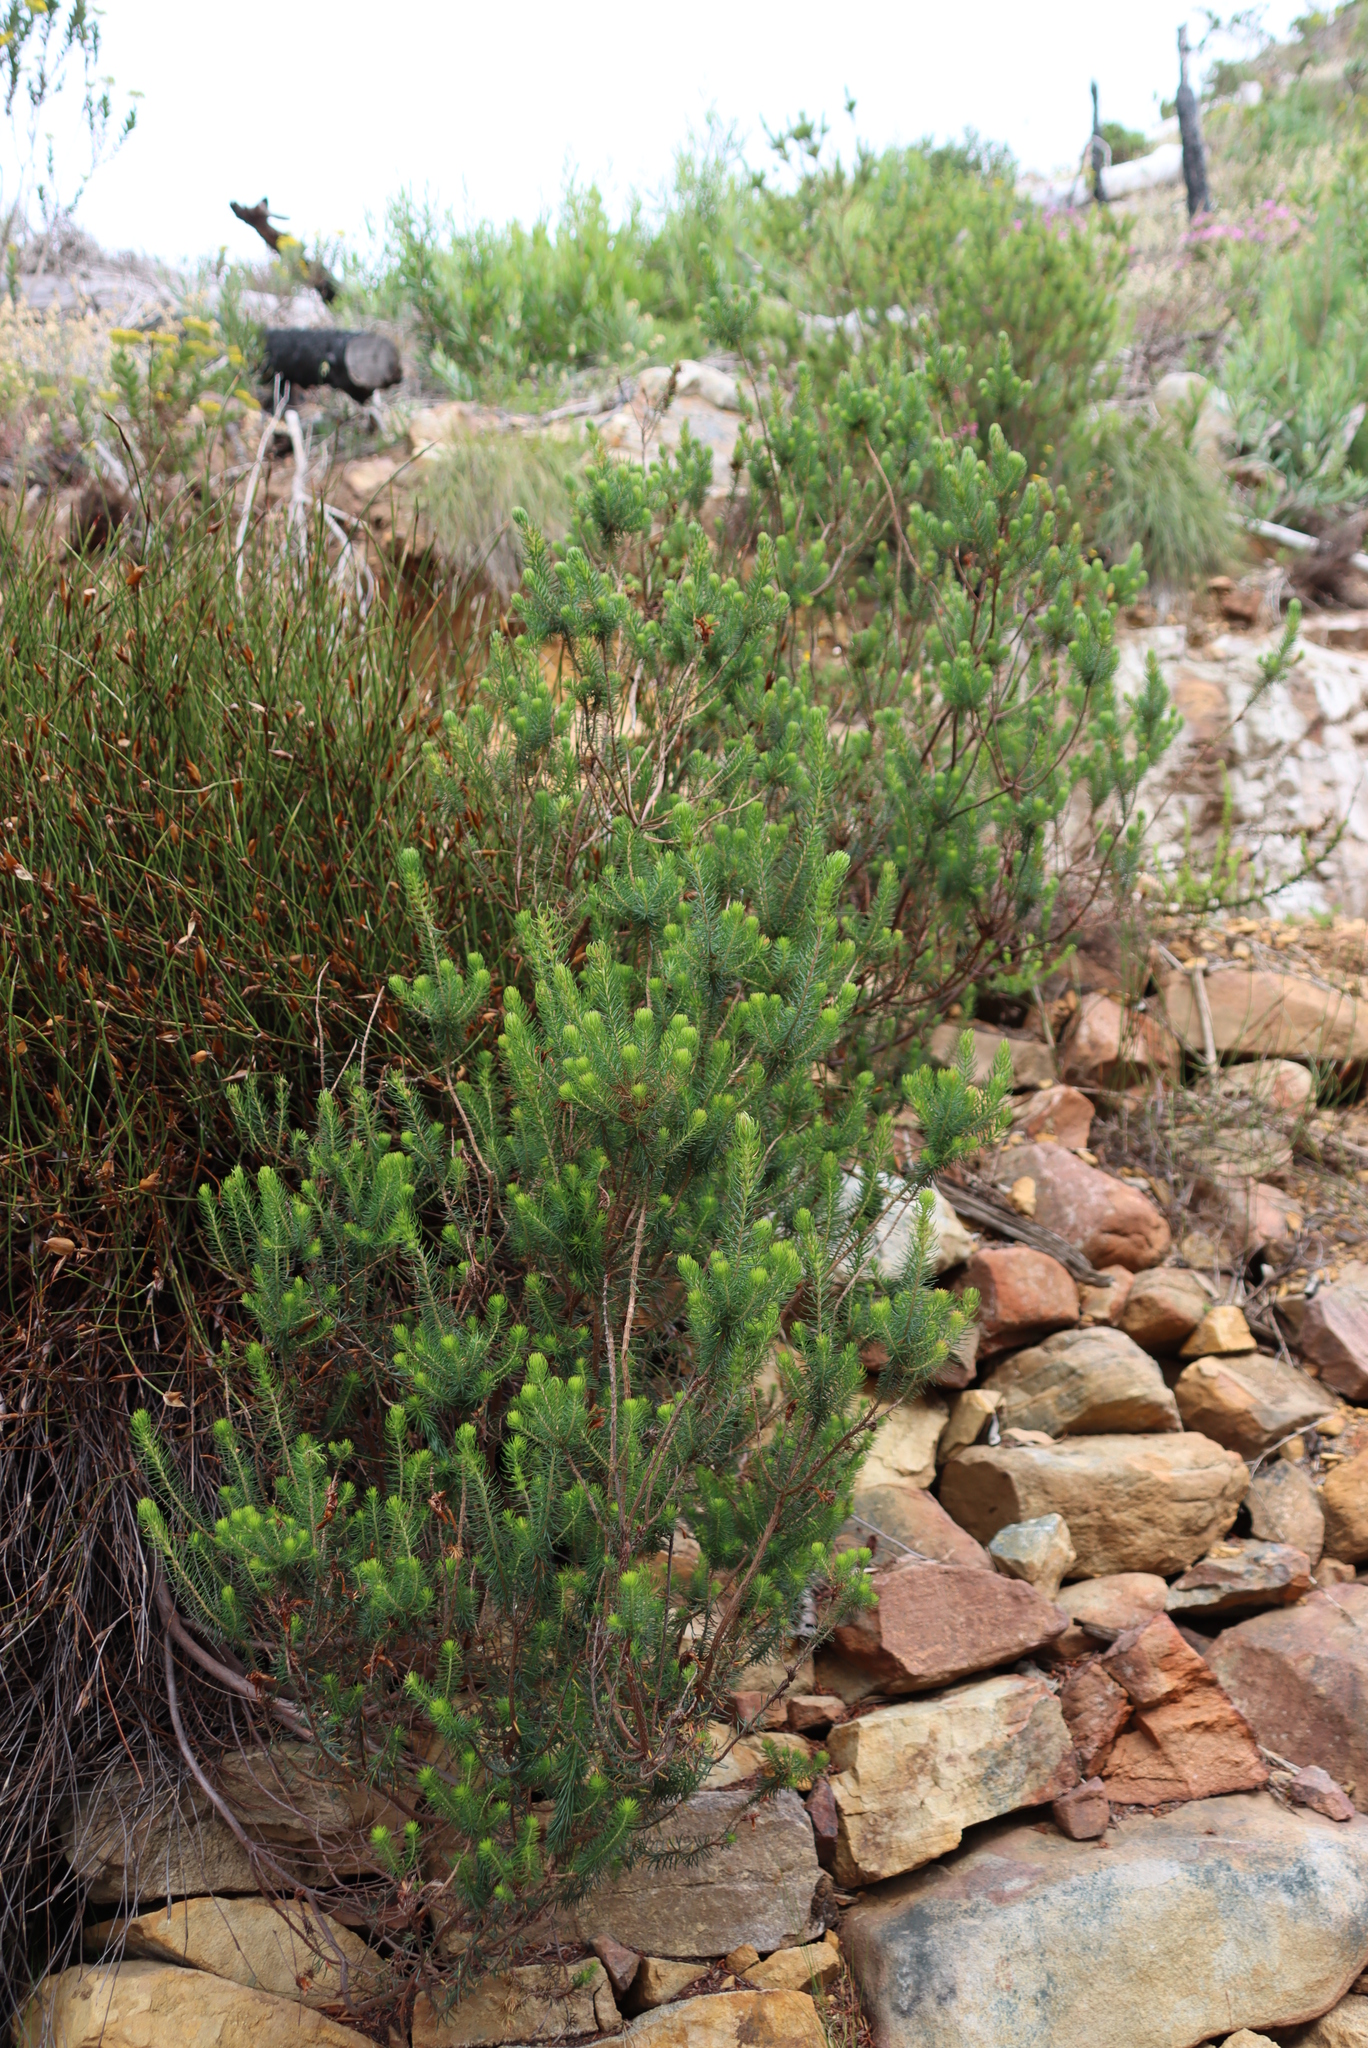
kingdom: Plantae
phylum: Tracheophyta
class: Magnoliopsida
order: Ericales
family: Ericaceae
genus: Erica
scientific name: Erica abietina
